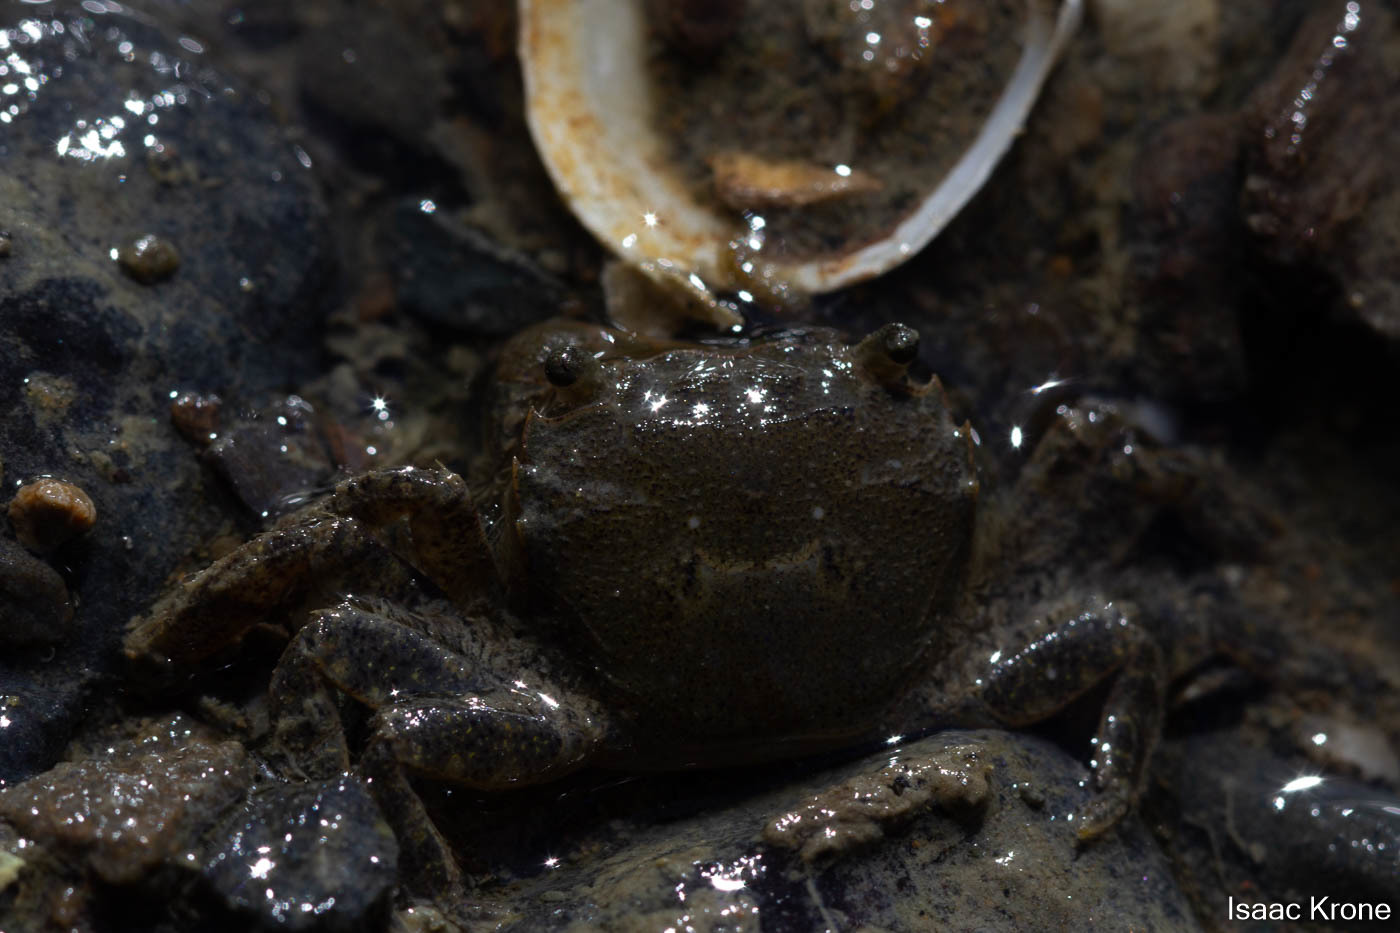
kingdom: Animalia
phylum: Arthropoda
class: Malacostraca
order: Decapoda
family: Varunidae
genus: Hemigrapsus
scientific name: Hemigrapsus oregonensis
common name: Yellow shore crab
